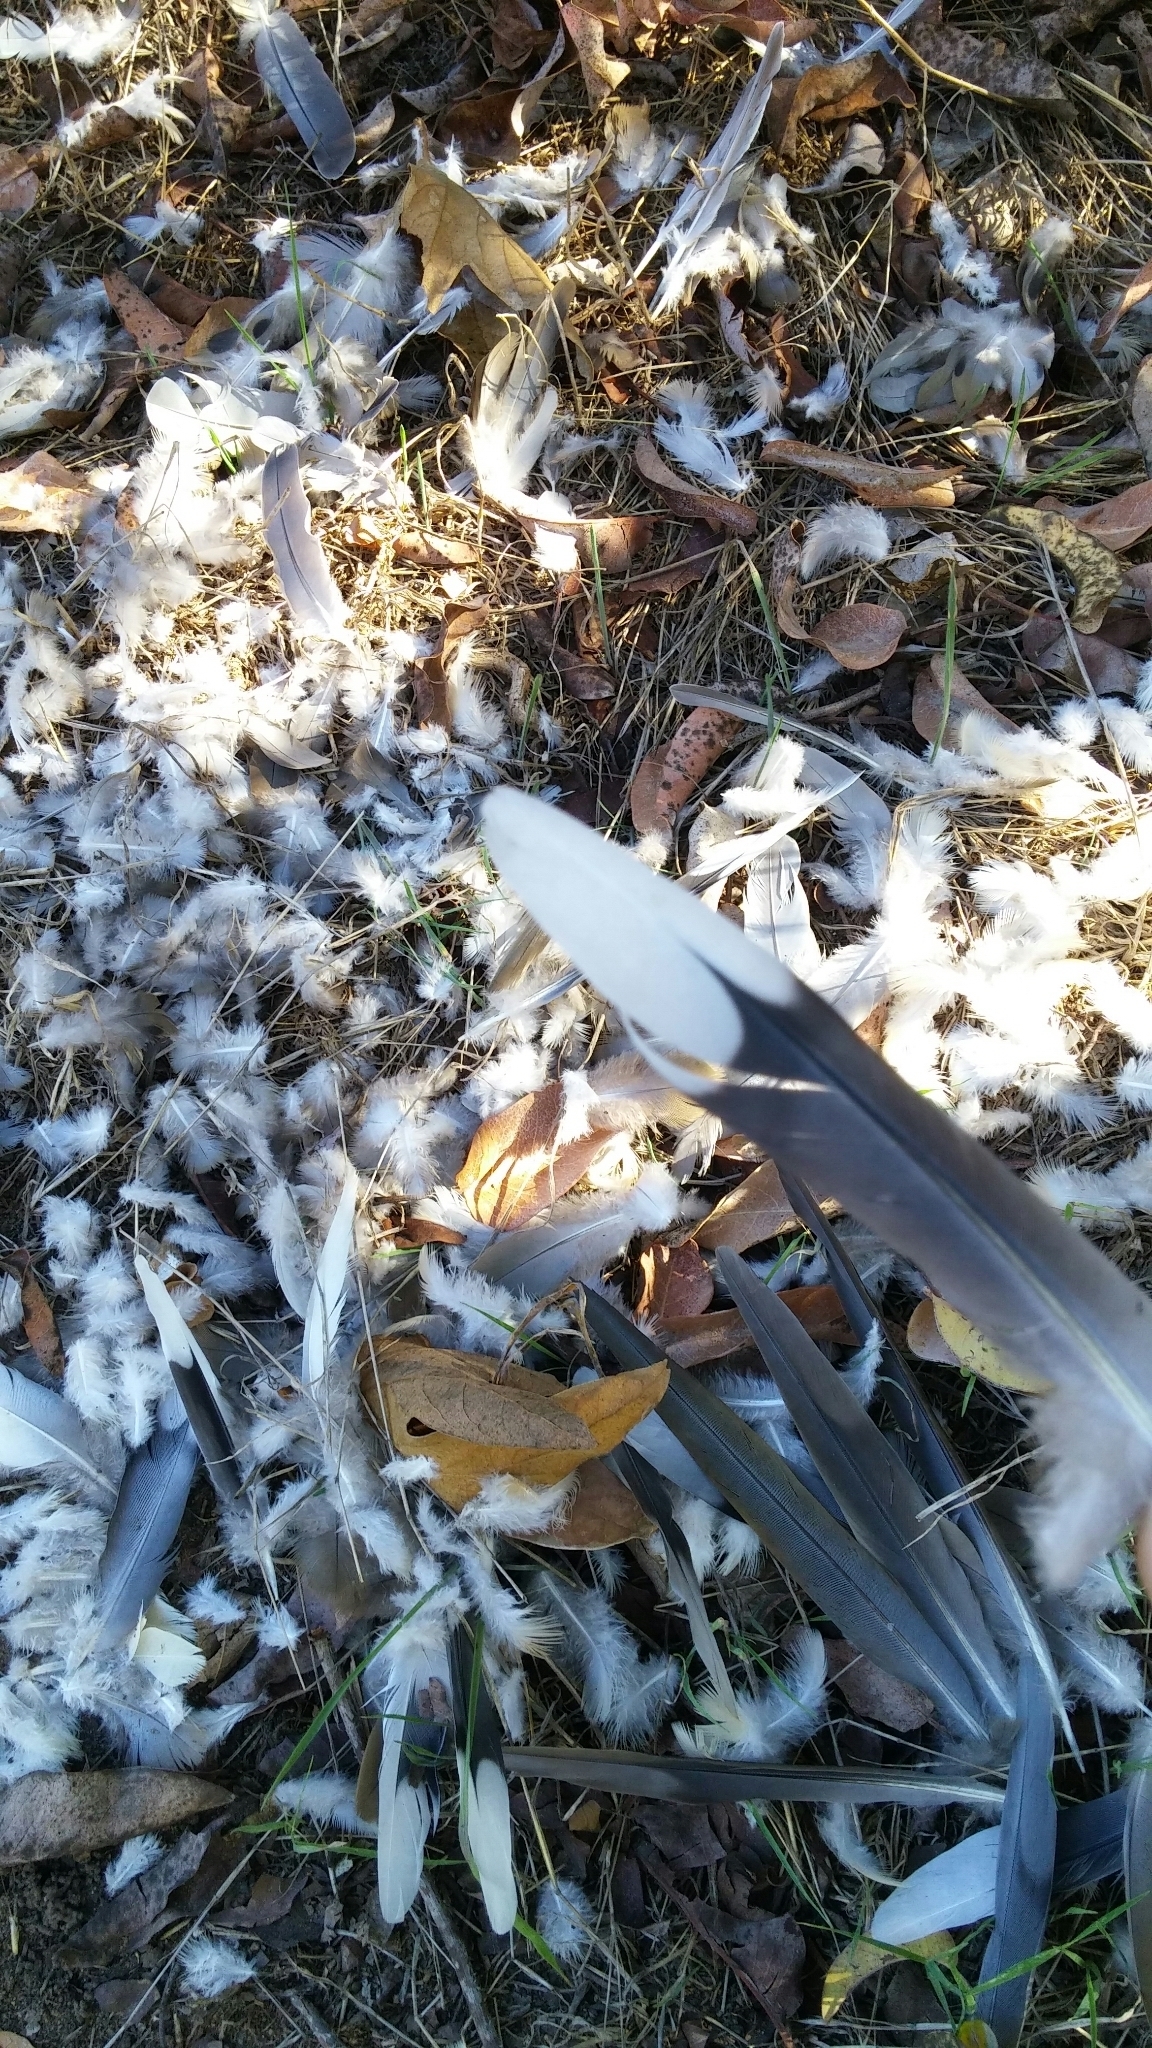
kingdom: Animalia
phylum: Chordata
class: Aves
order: Columbiformes
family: Columbidae
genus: Zenaida
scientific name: Zenaida macroura
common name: Mourning dove
